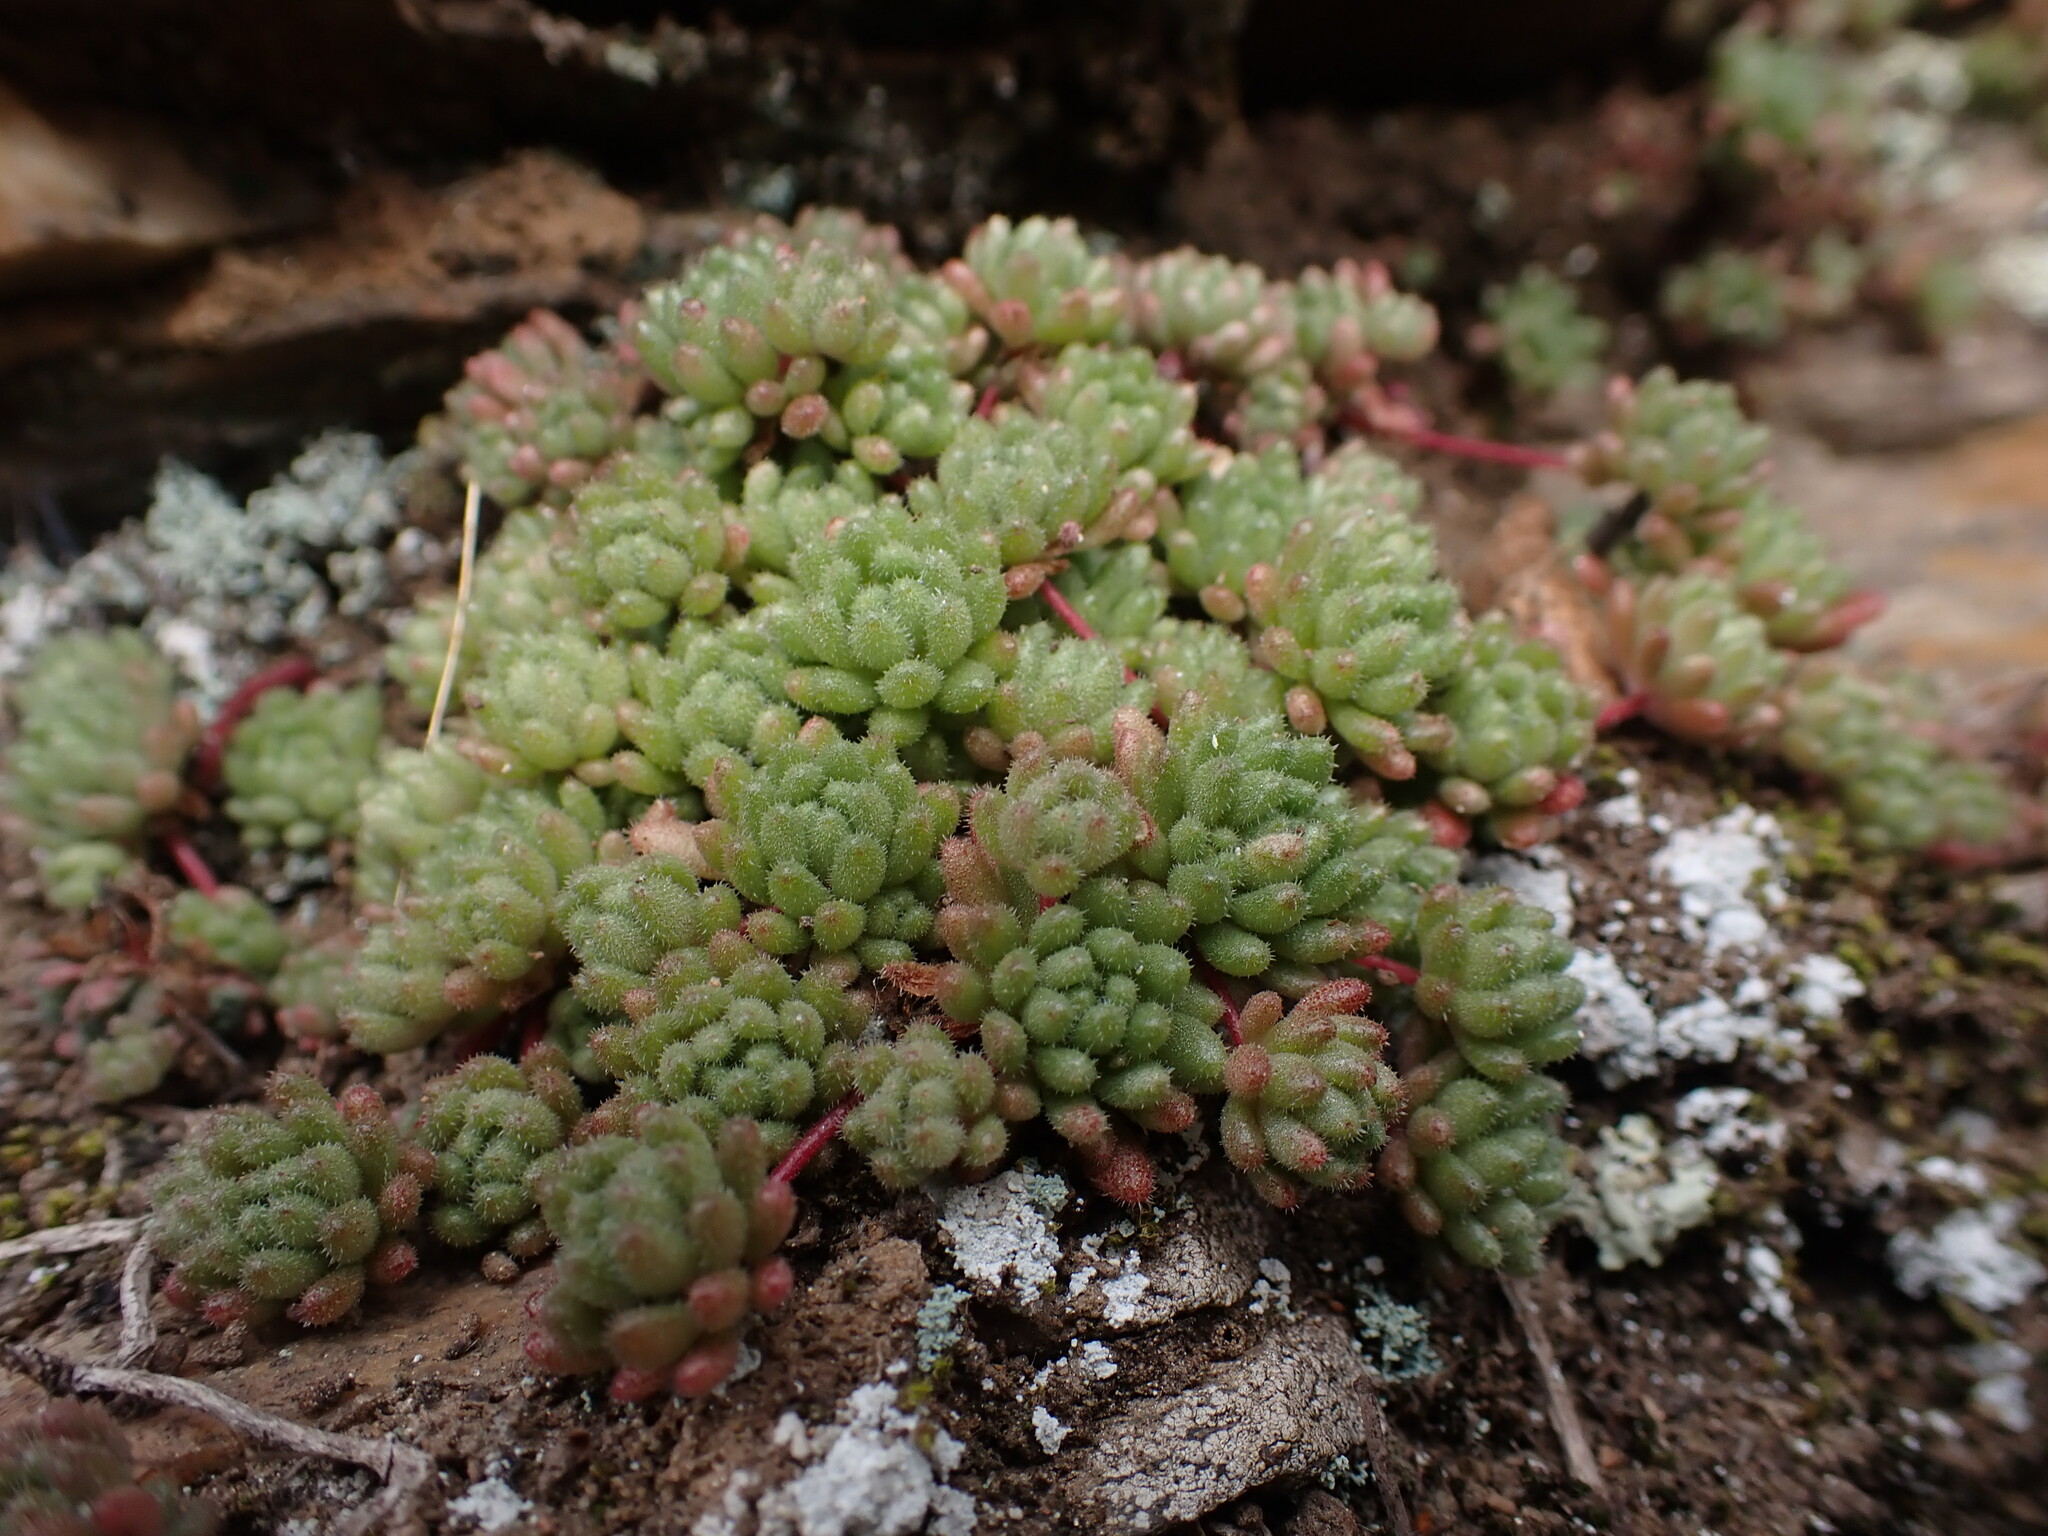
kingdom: Plantae
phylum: Tracheophyta
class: Magnoliopsida
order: Saxifragales
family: Crassulaceae
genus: Sedum
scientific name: Sedum hirsutum
